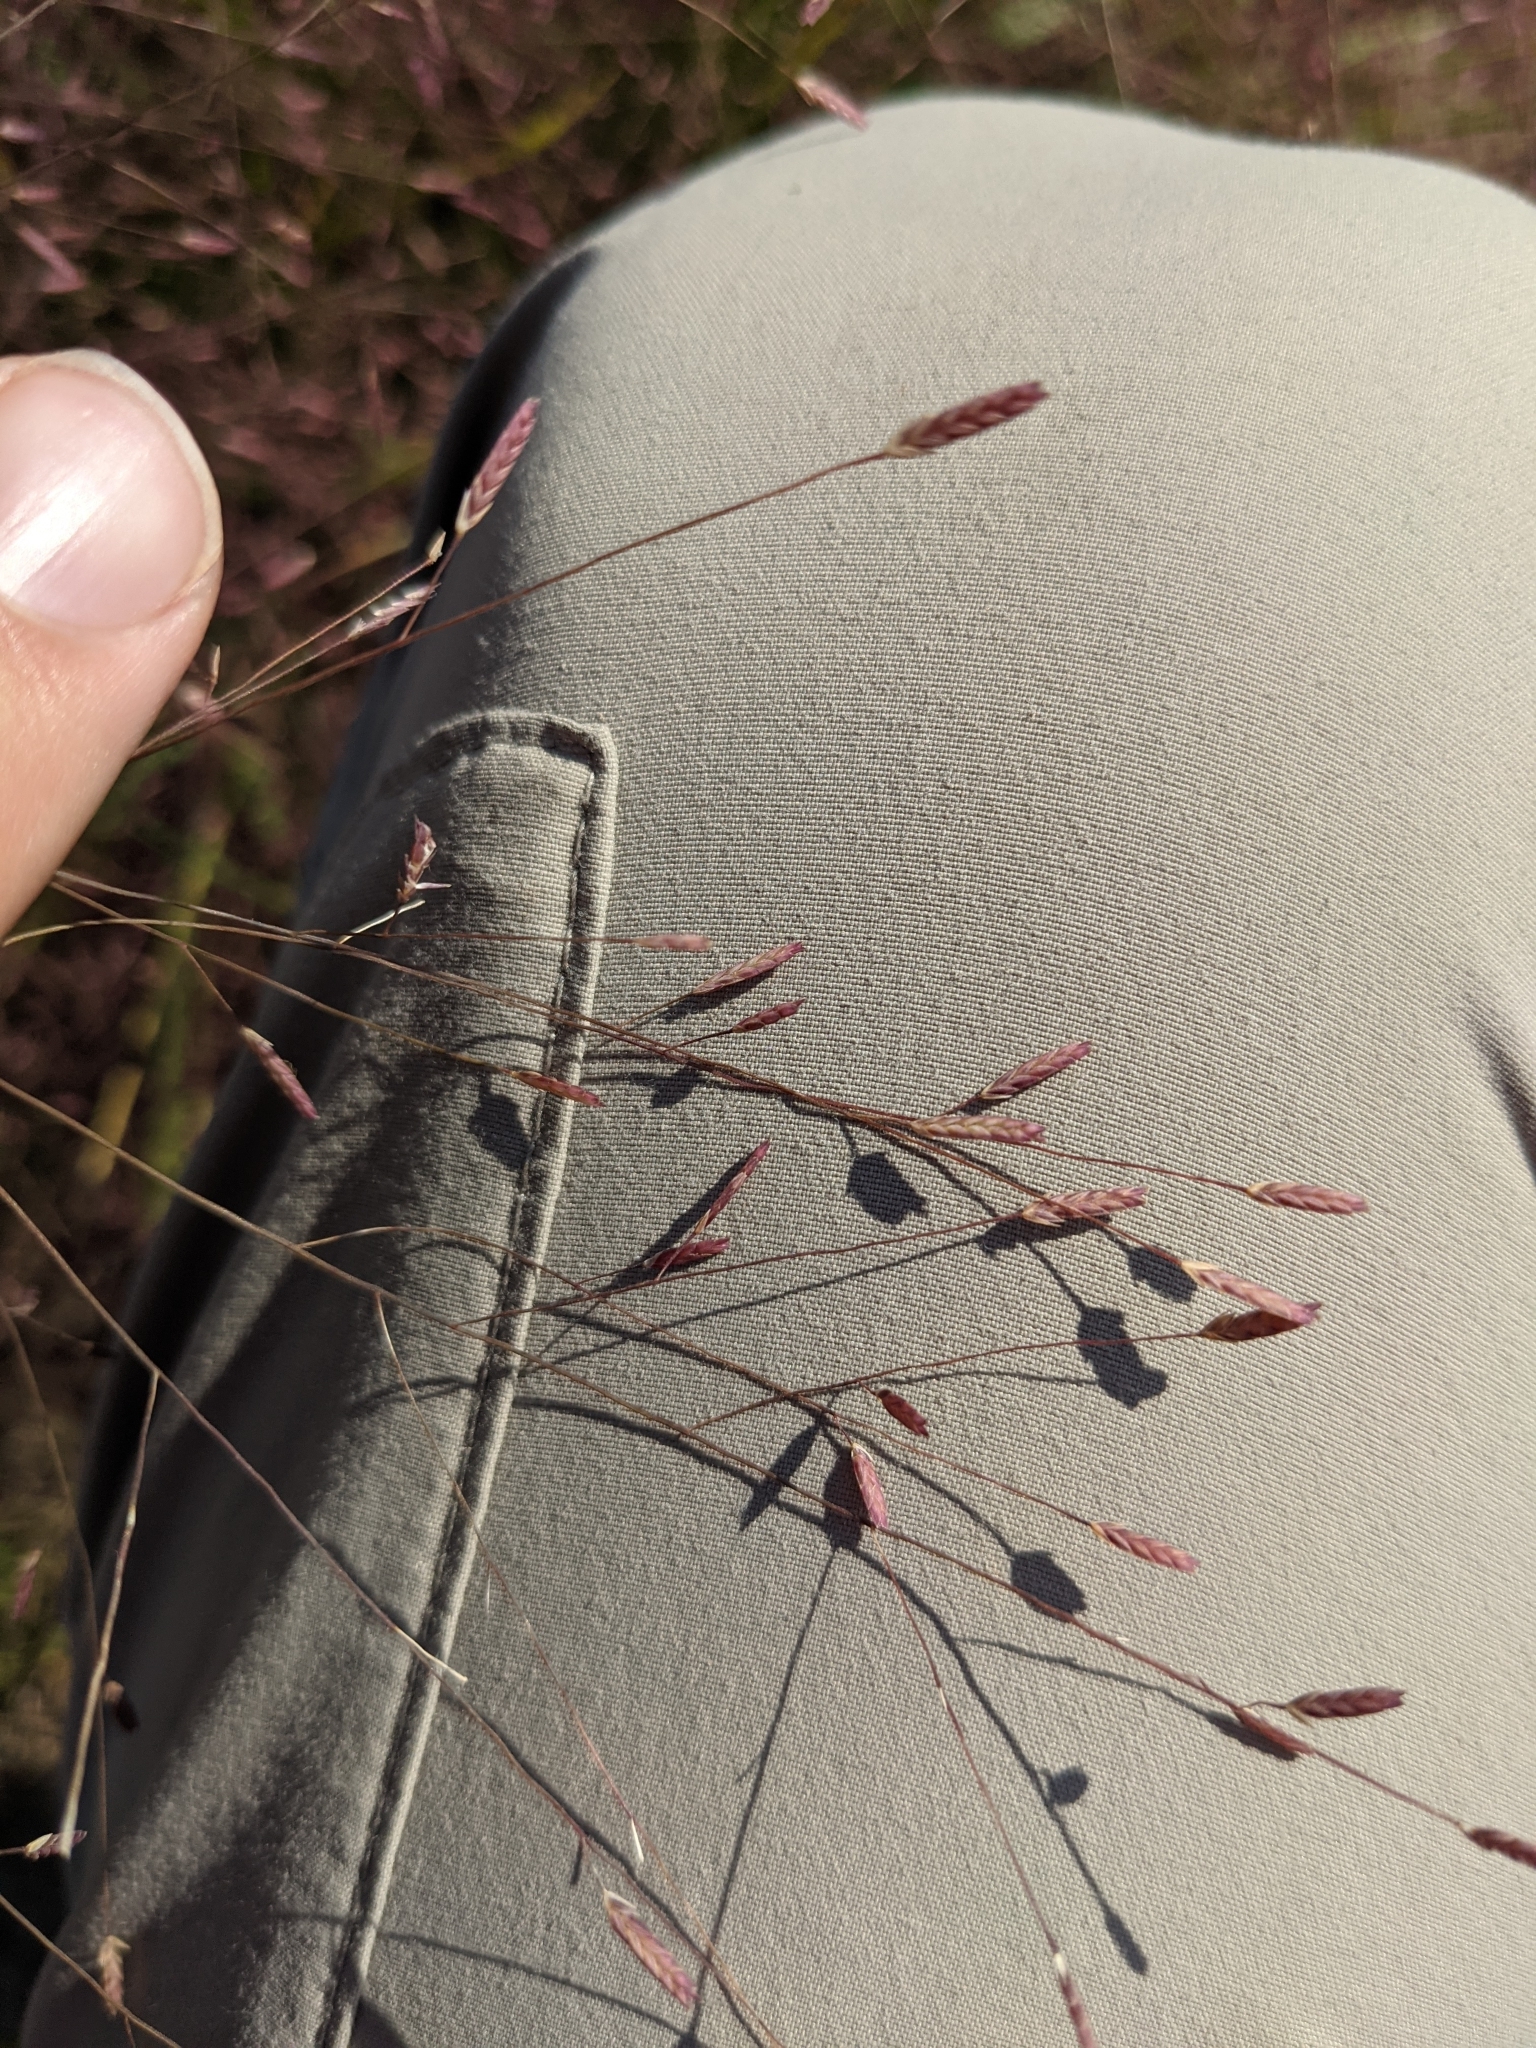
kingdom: Plantae
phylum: Tracheophyta
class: Liliopsida
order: Poales
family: Poaceae
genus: Eragrostis
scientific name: Eragrostis spectabilis
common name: Petticoat-climber
